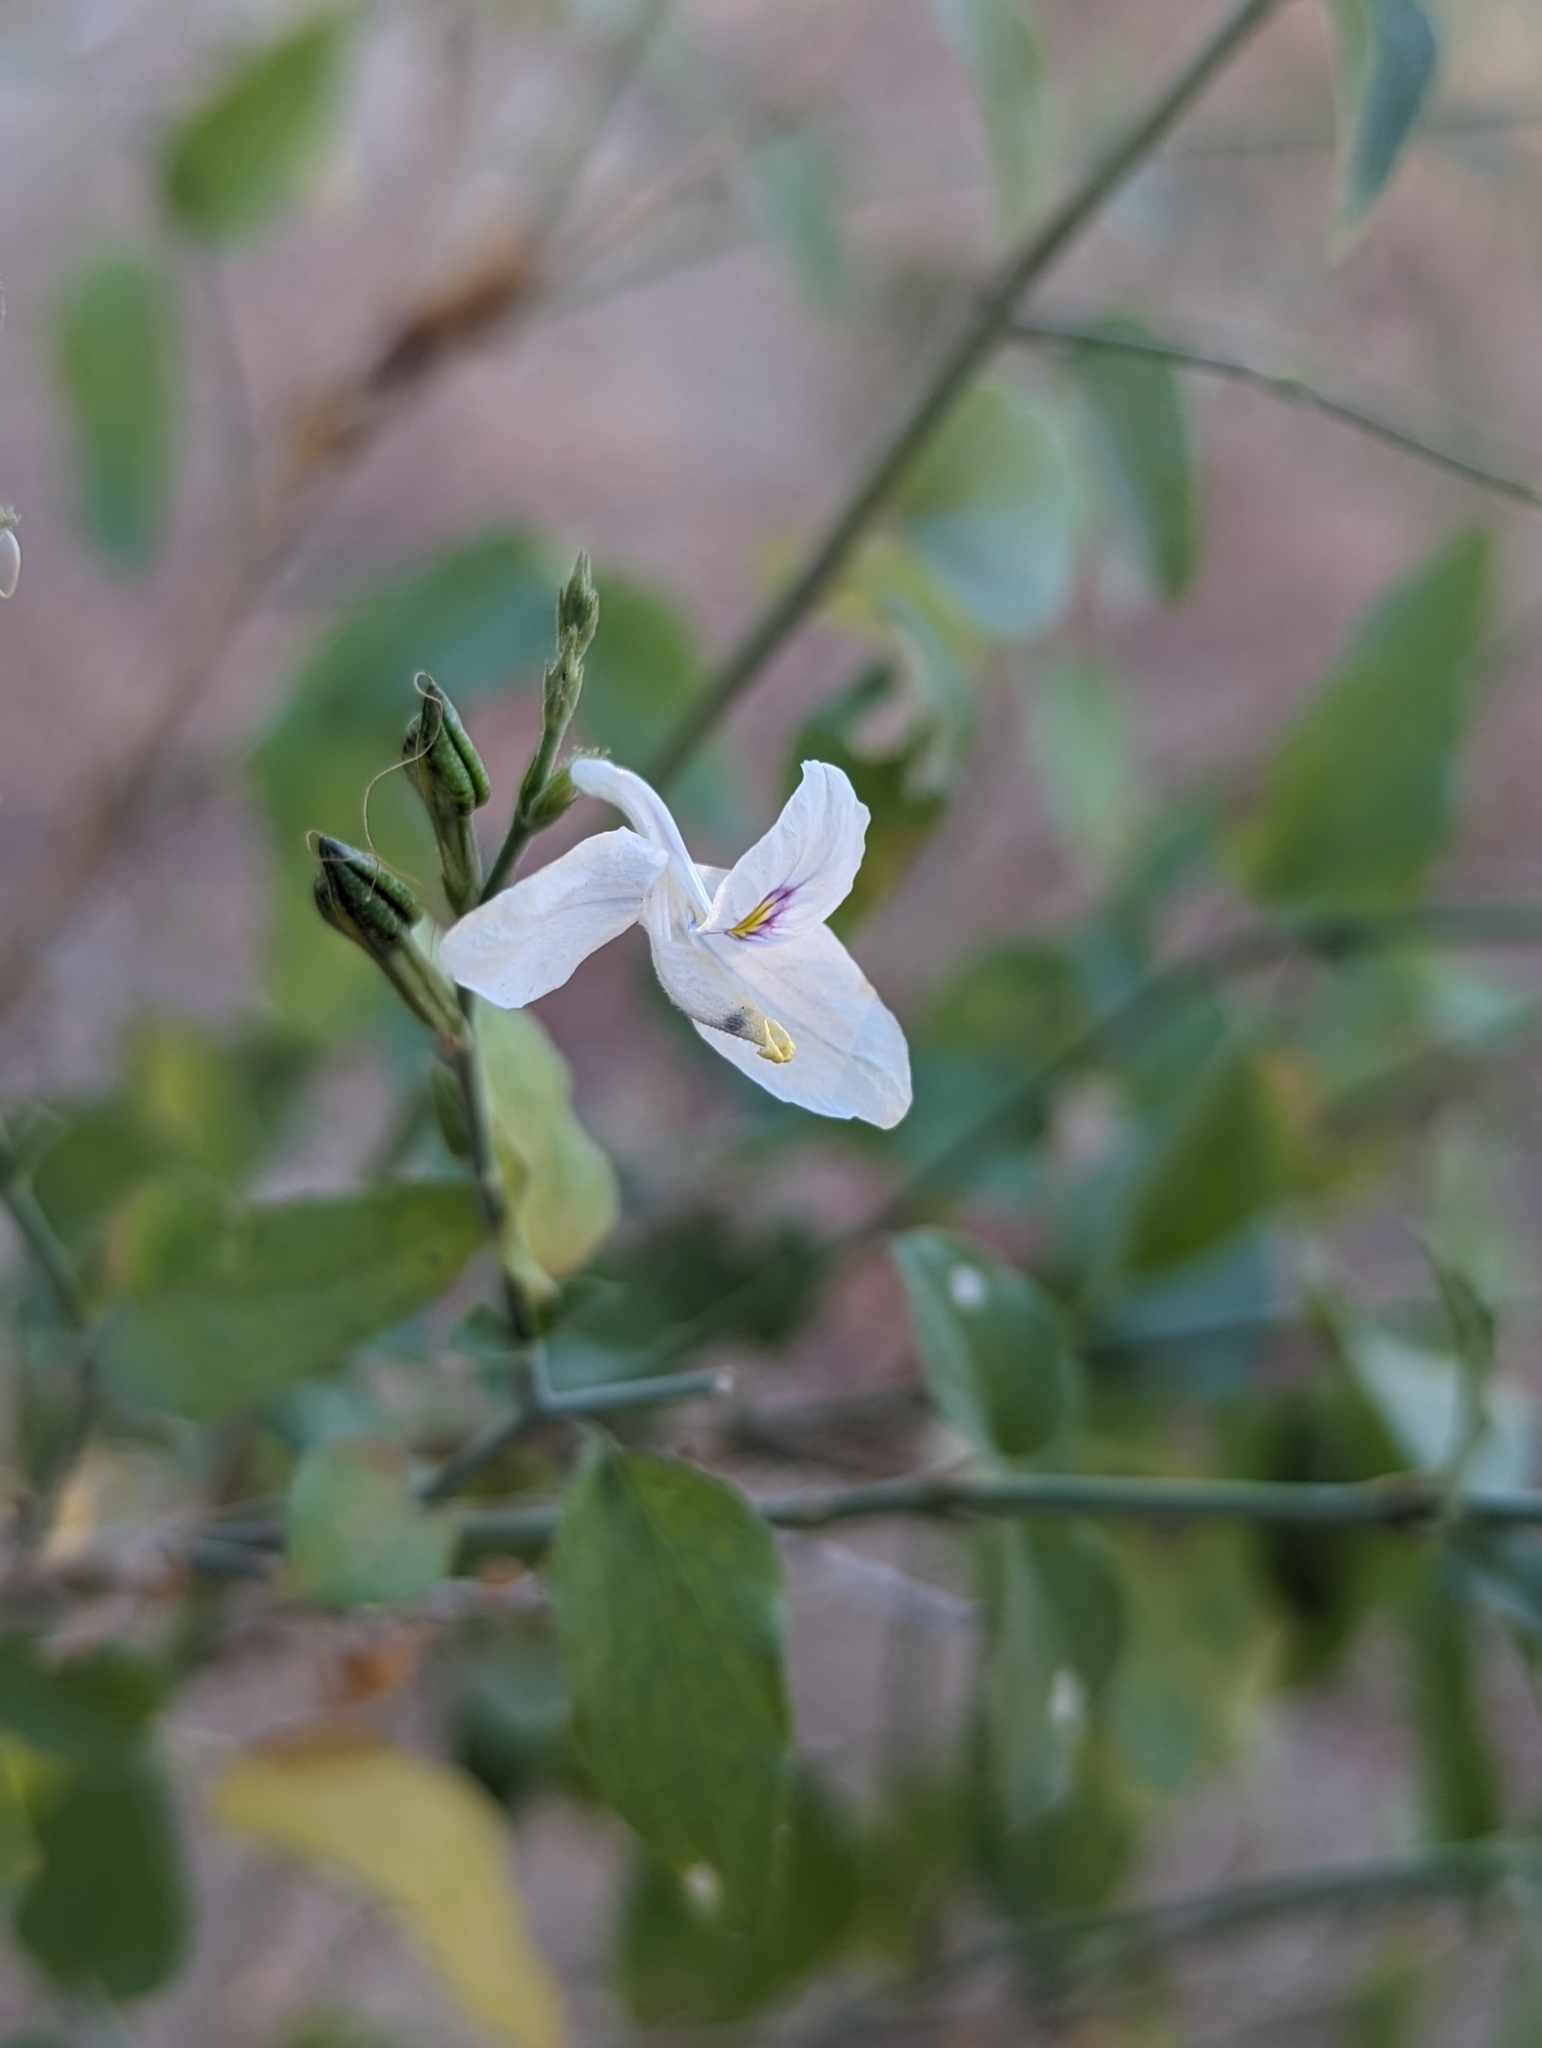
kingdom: Plantae
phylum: Tracheophyta
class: Magnoliopsida
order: Lamiales
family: Acanthaceae
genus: Carlowrightia
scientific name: Carlowrightia arizonica
